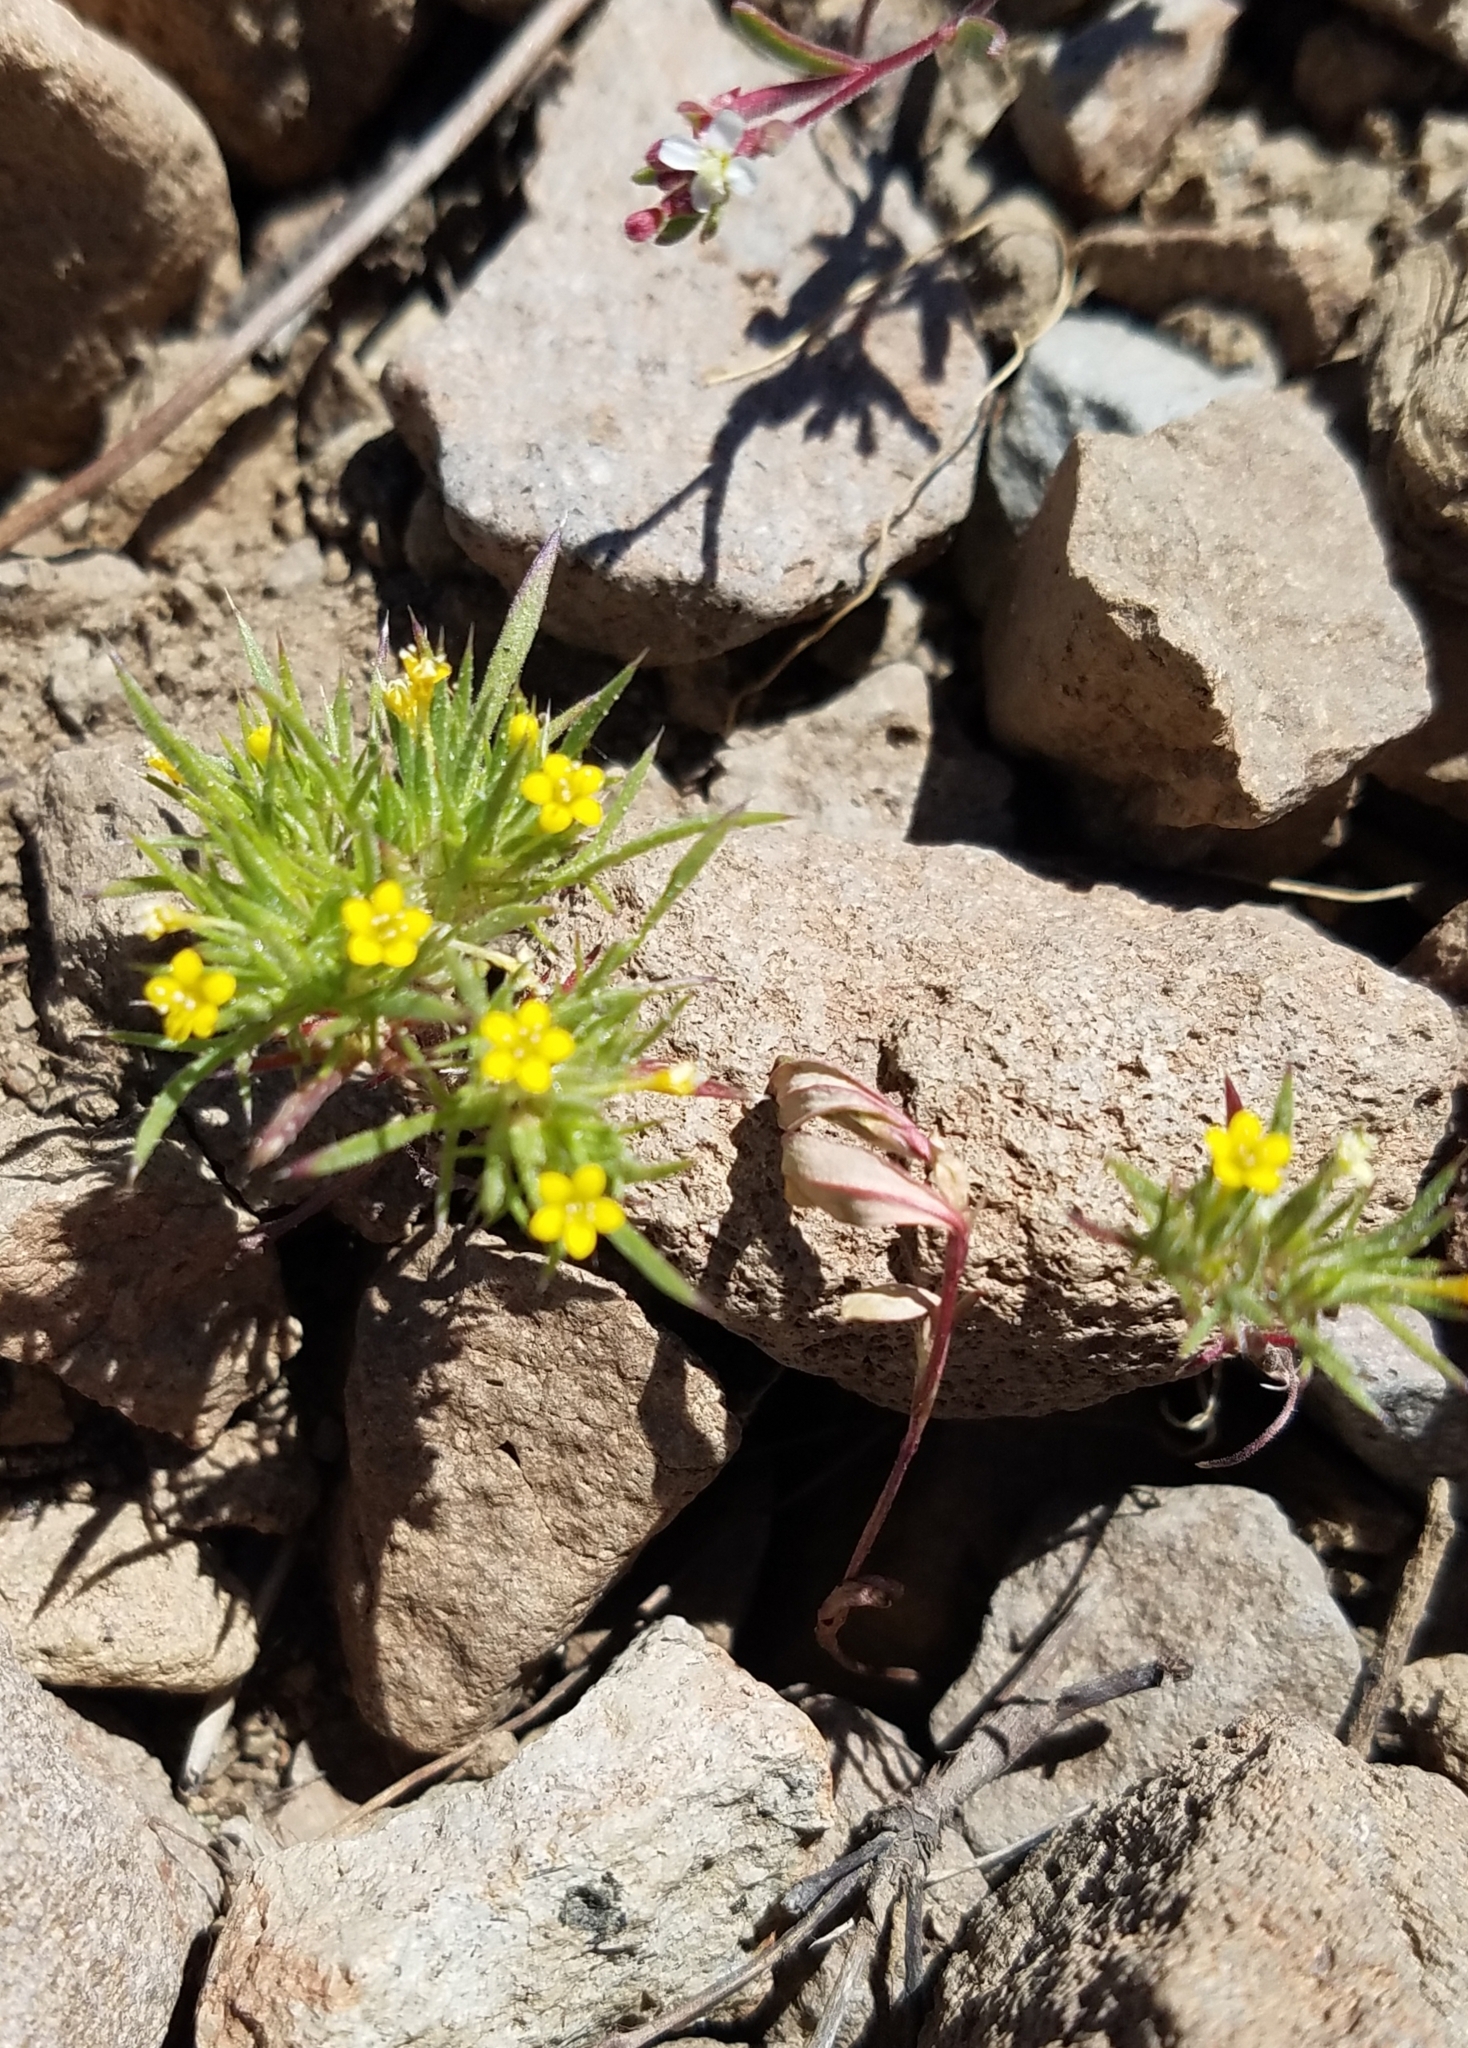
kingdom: Plantae
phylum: Tracheophyta
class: Magnoliopsida
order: Ericales
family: Polemoniaceae
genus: Navarretia
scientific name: Navarretia breweri
